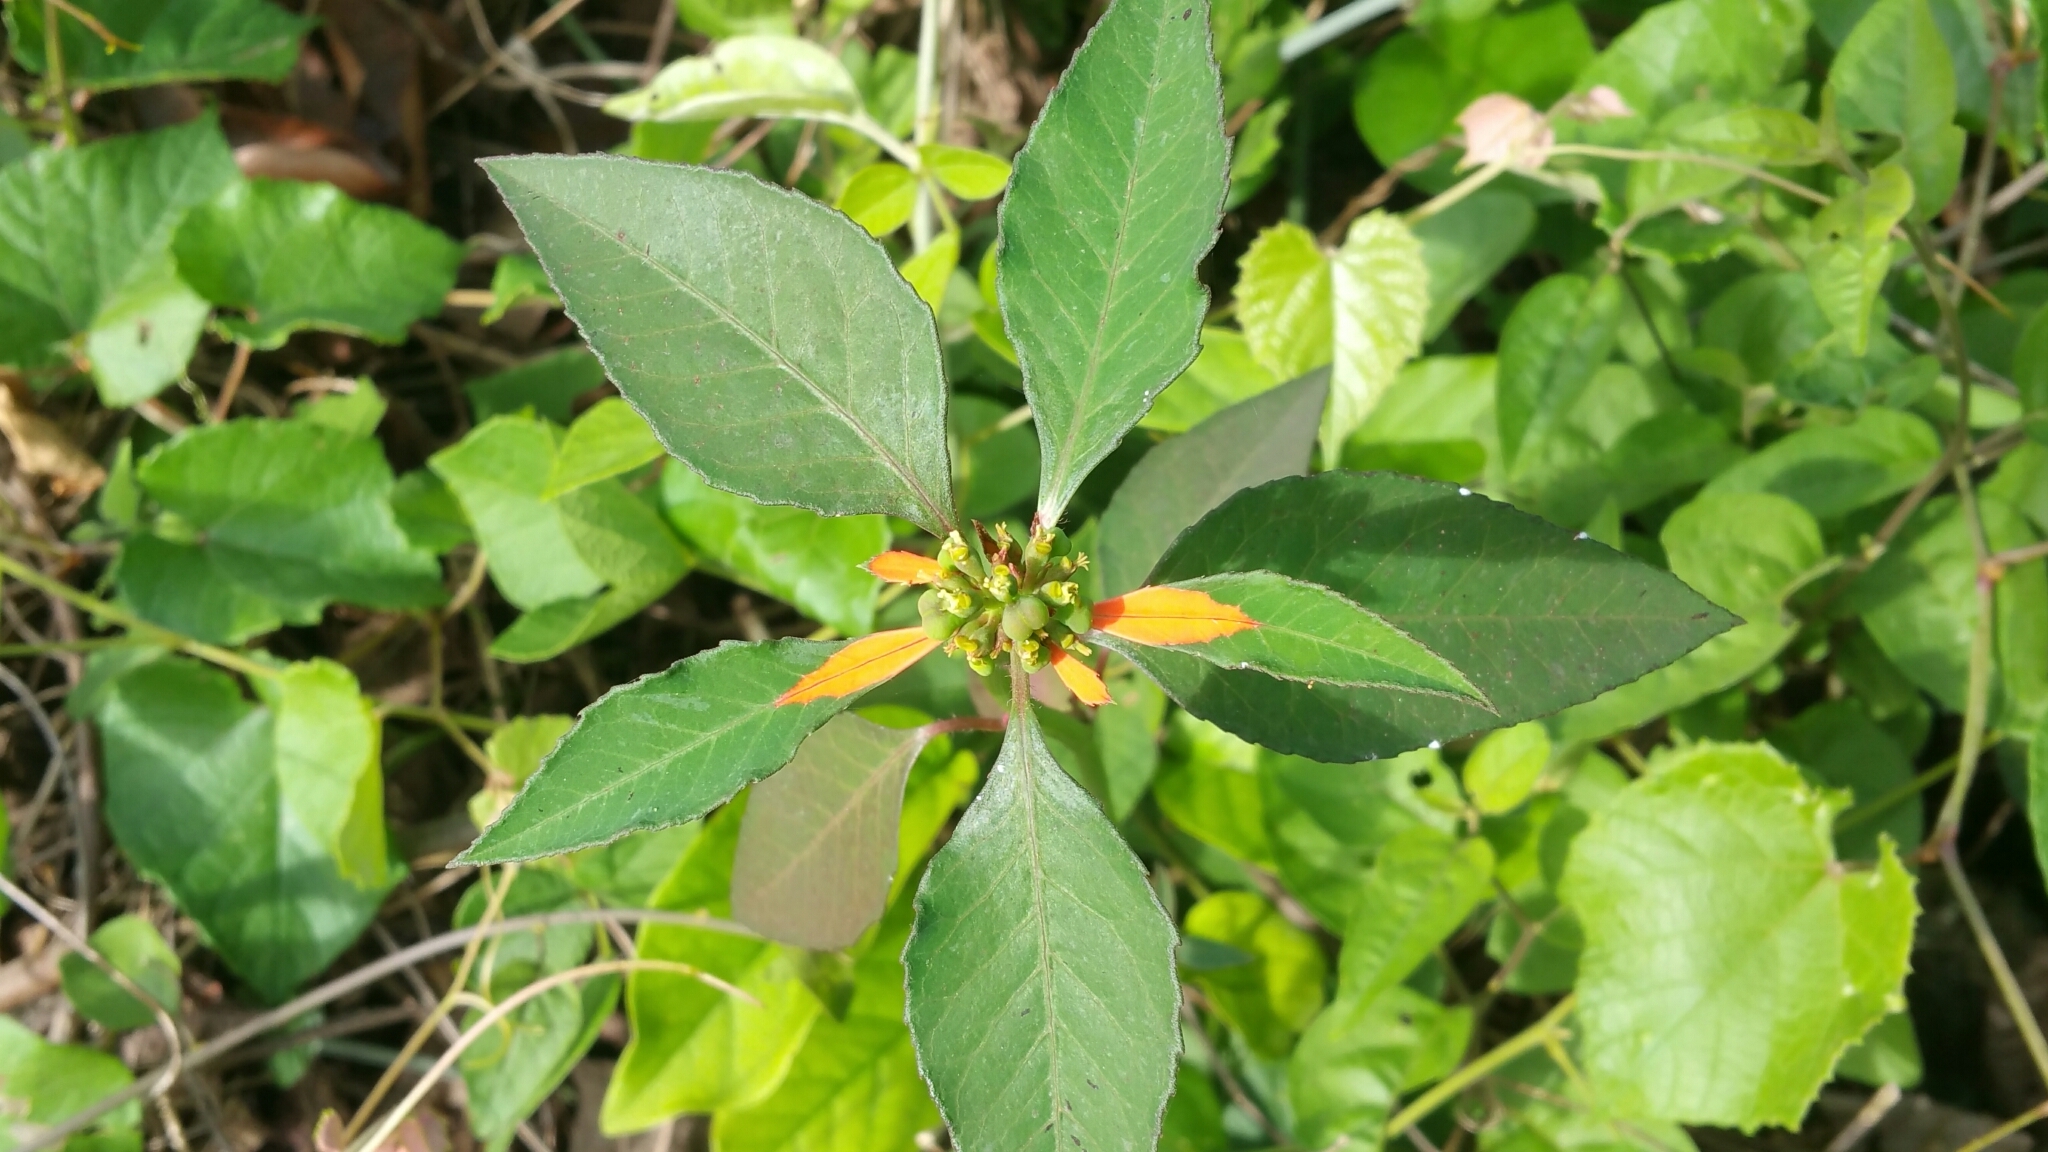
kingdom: Plantae
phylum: Tracheophyta
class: Magnoliopsida
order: Malpighiales
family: Euphorbiaceae
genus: Euphorbia
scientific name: Euphorbia heterophylla
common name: Mexican fireplant
